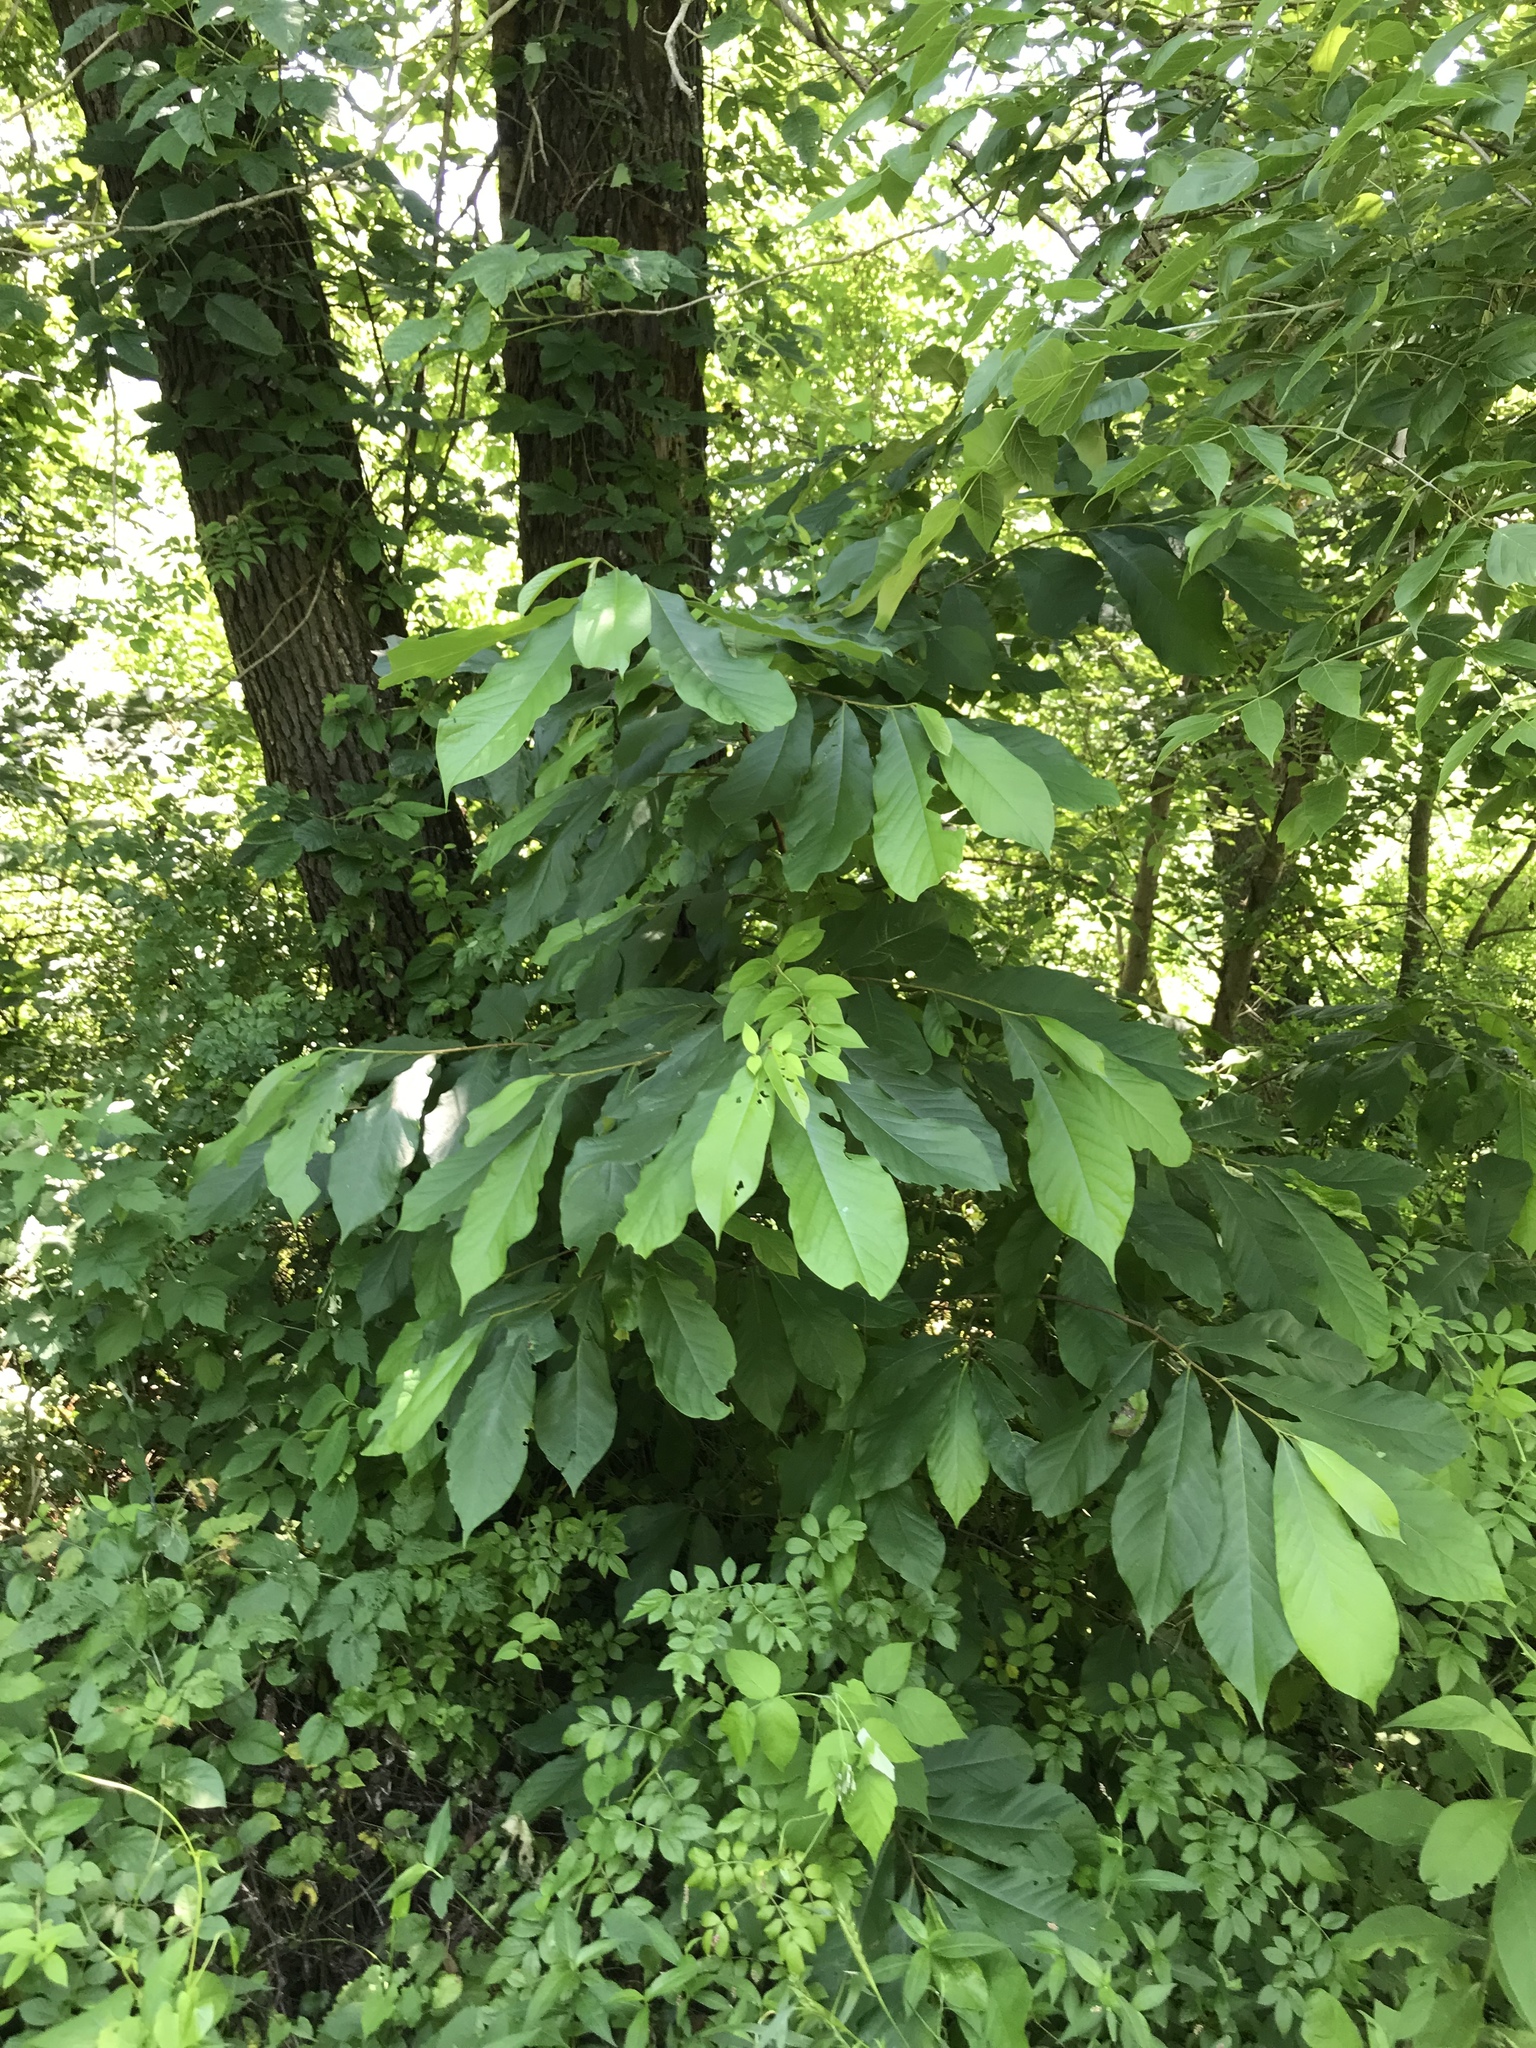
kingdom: Plantae
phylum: Tracheophyta
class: Magnoliopsida
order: Magnoliales
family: Annonaceae
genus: Asimina
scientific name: Asimina triloba
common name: Dog-banana
